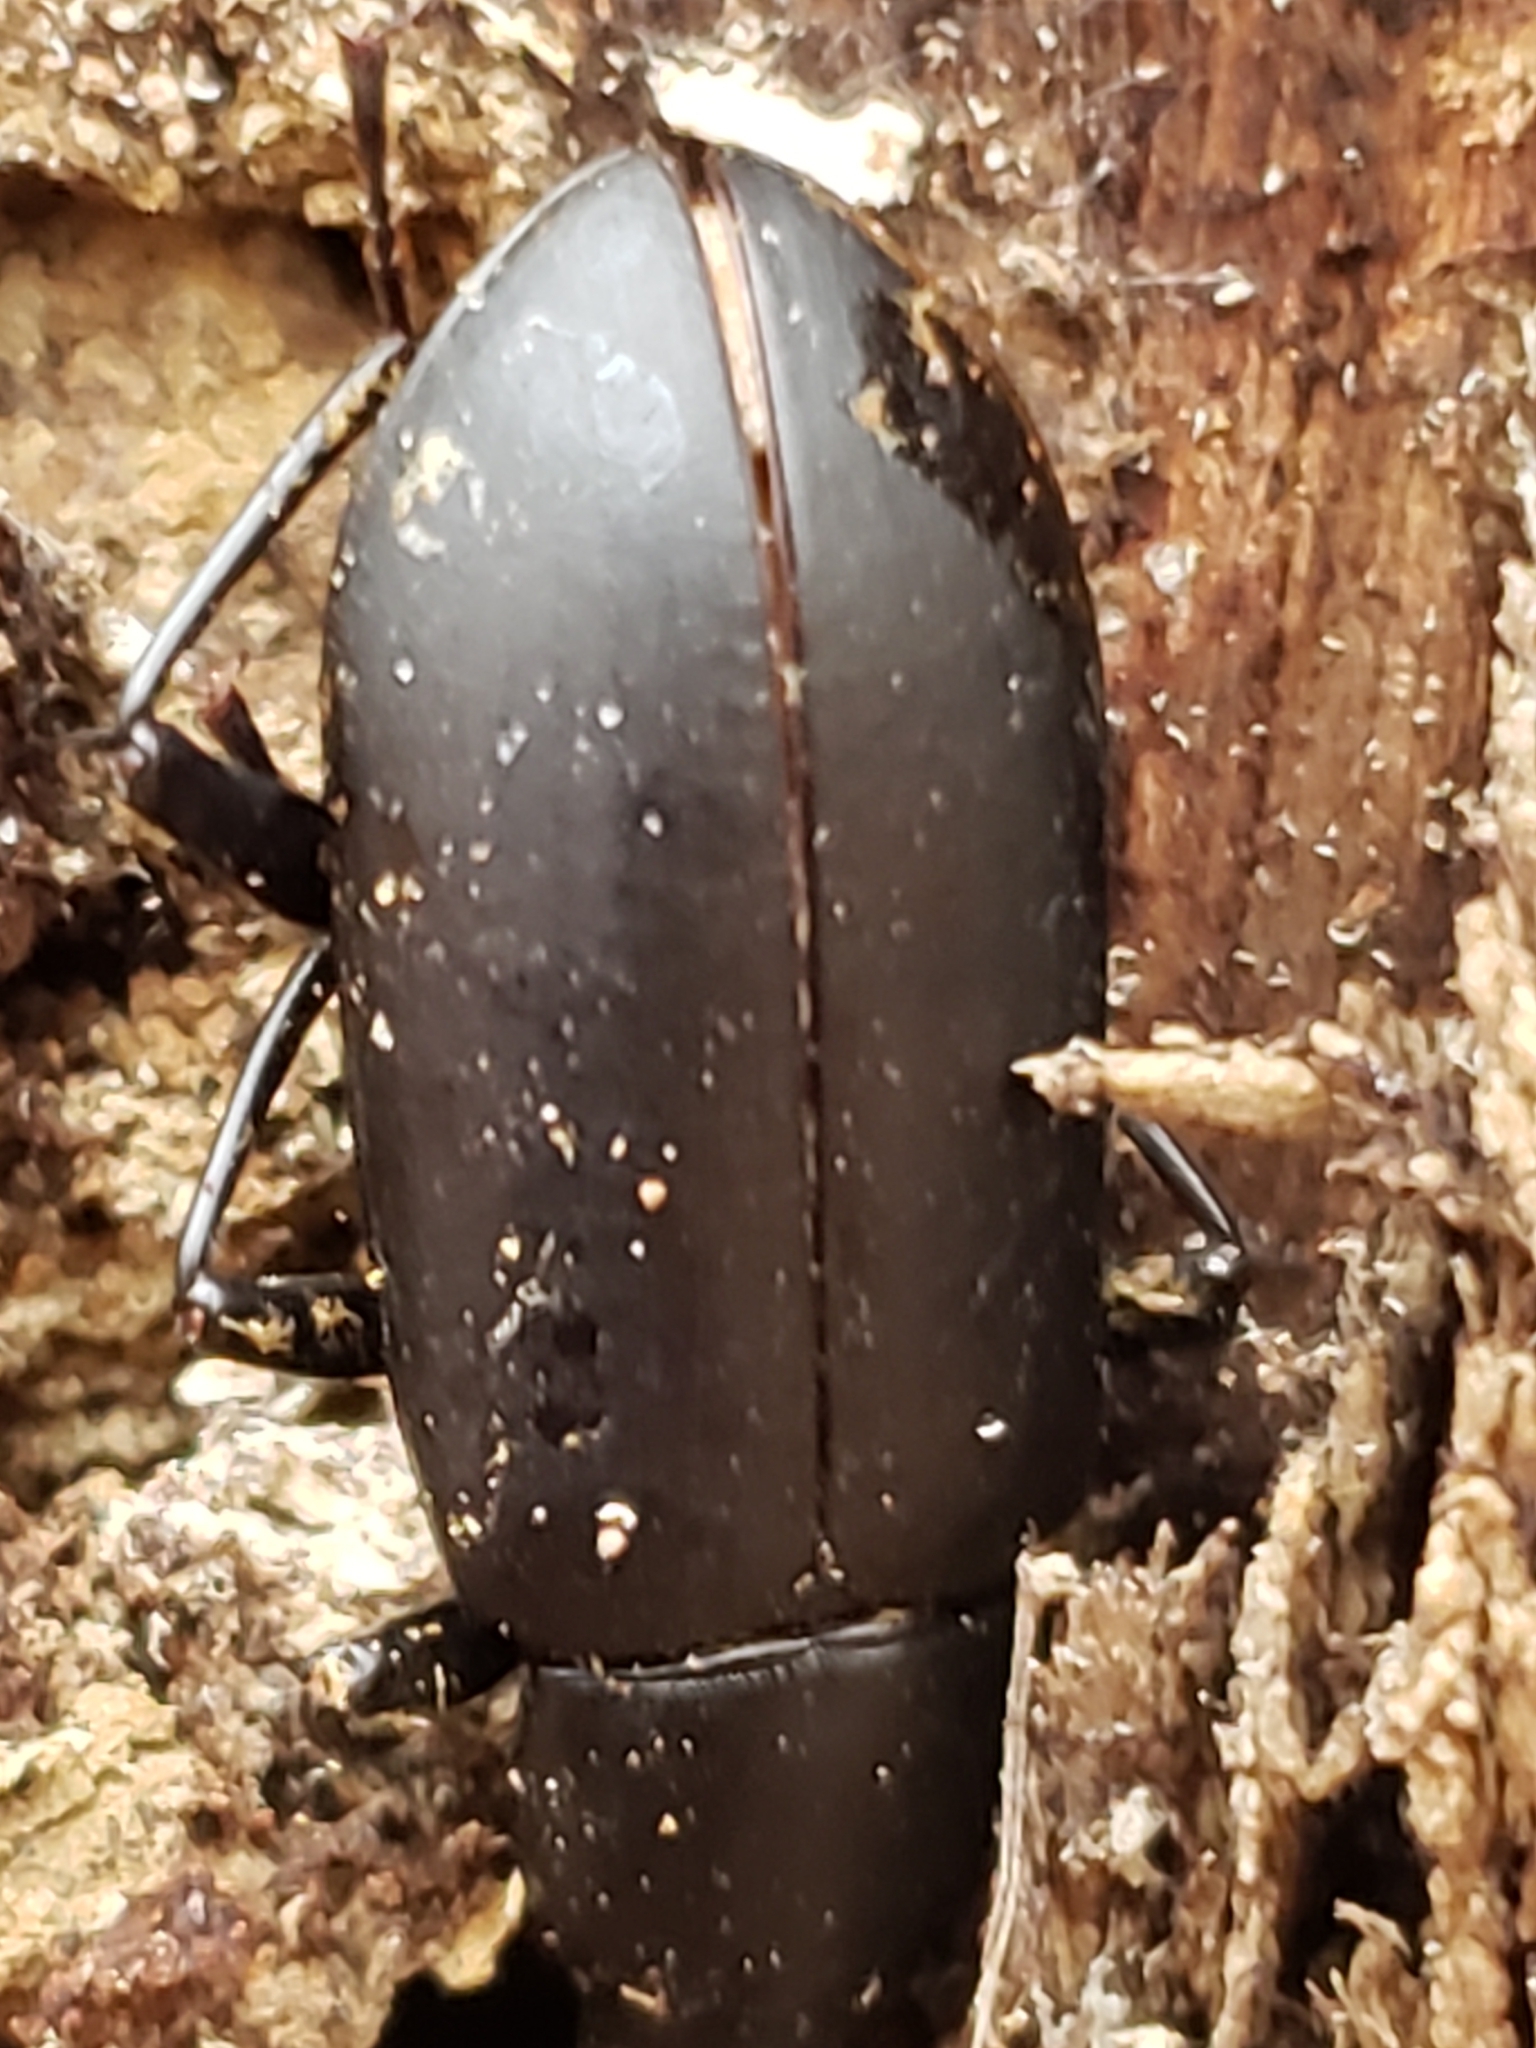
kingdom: Animalia
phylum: Arthropoda
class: Insecta
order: Coleoptera
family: Tenebrionidae
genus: Alobates
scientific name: Alobates
